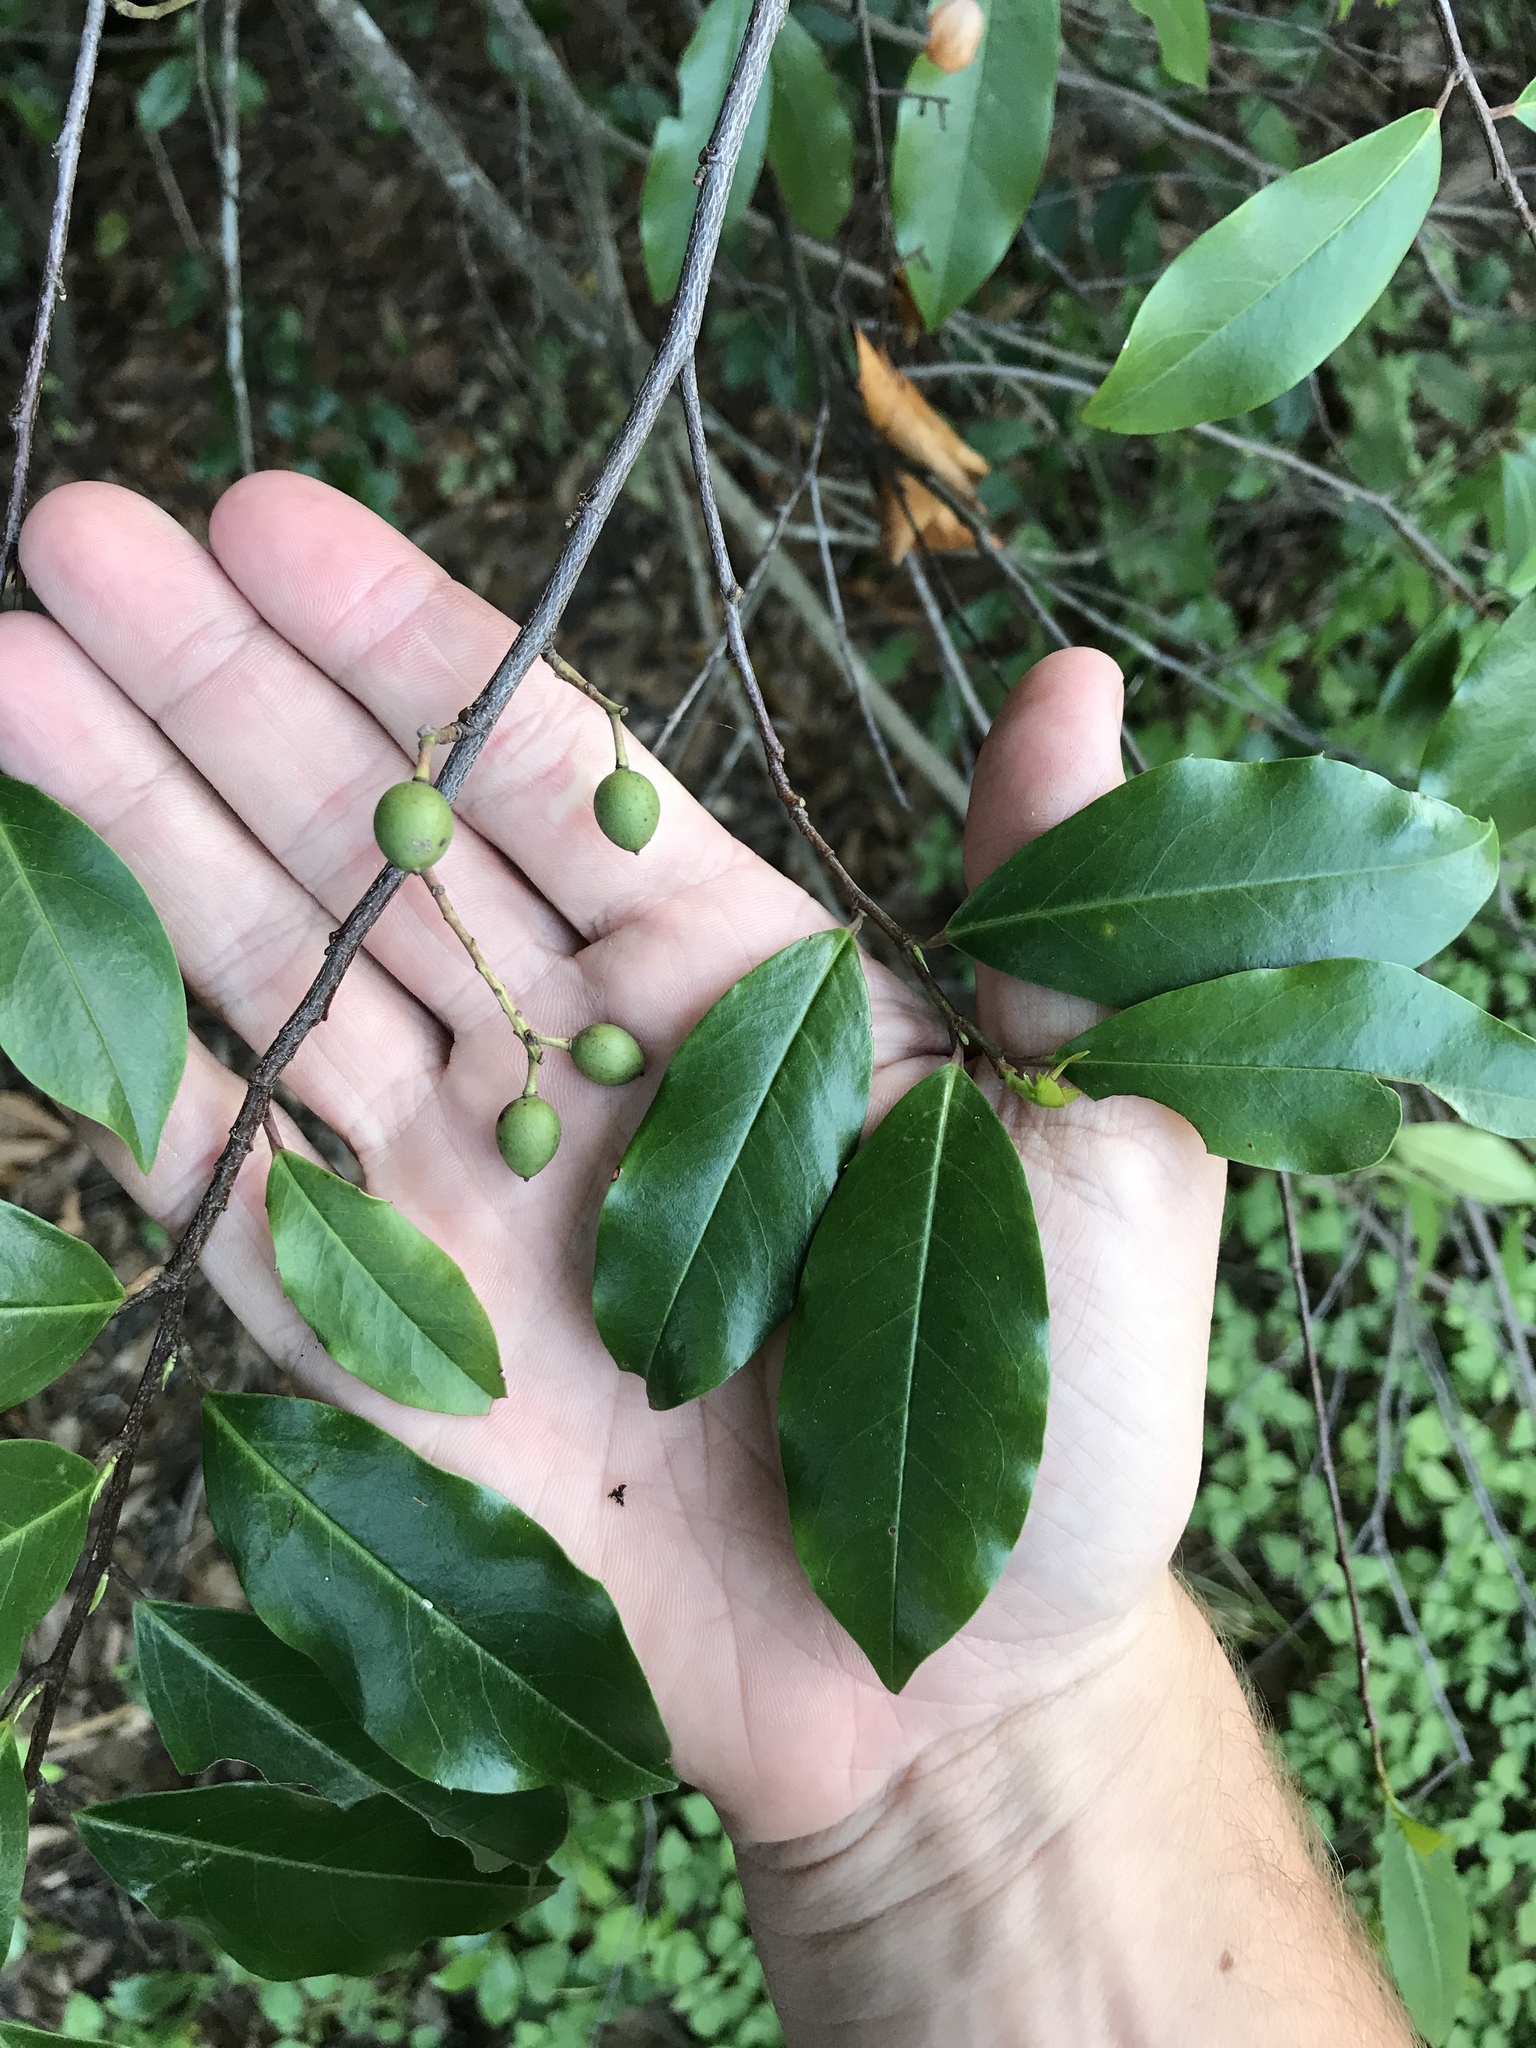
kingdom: Plantae
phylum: Tracheophyta
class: Magnoliopsida
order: Rosales
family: Rosaceae
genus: Prunus
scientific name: Prunus caroliniana
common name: Carolina laurel cherry
